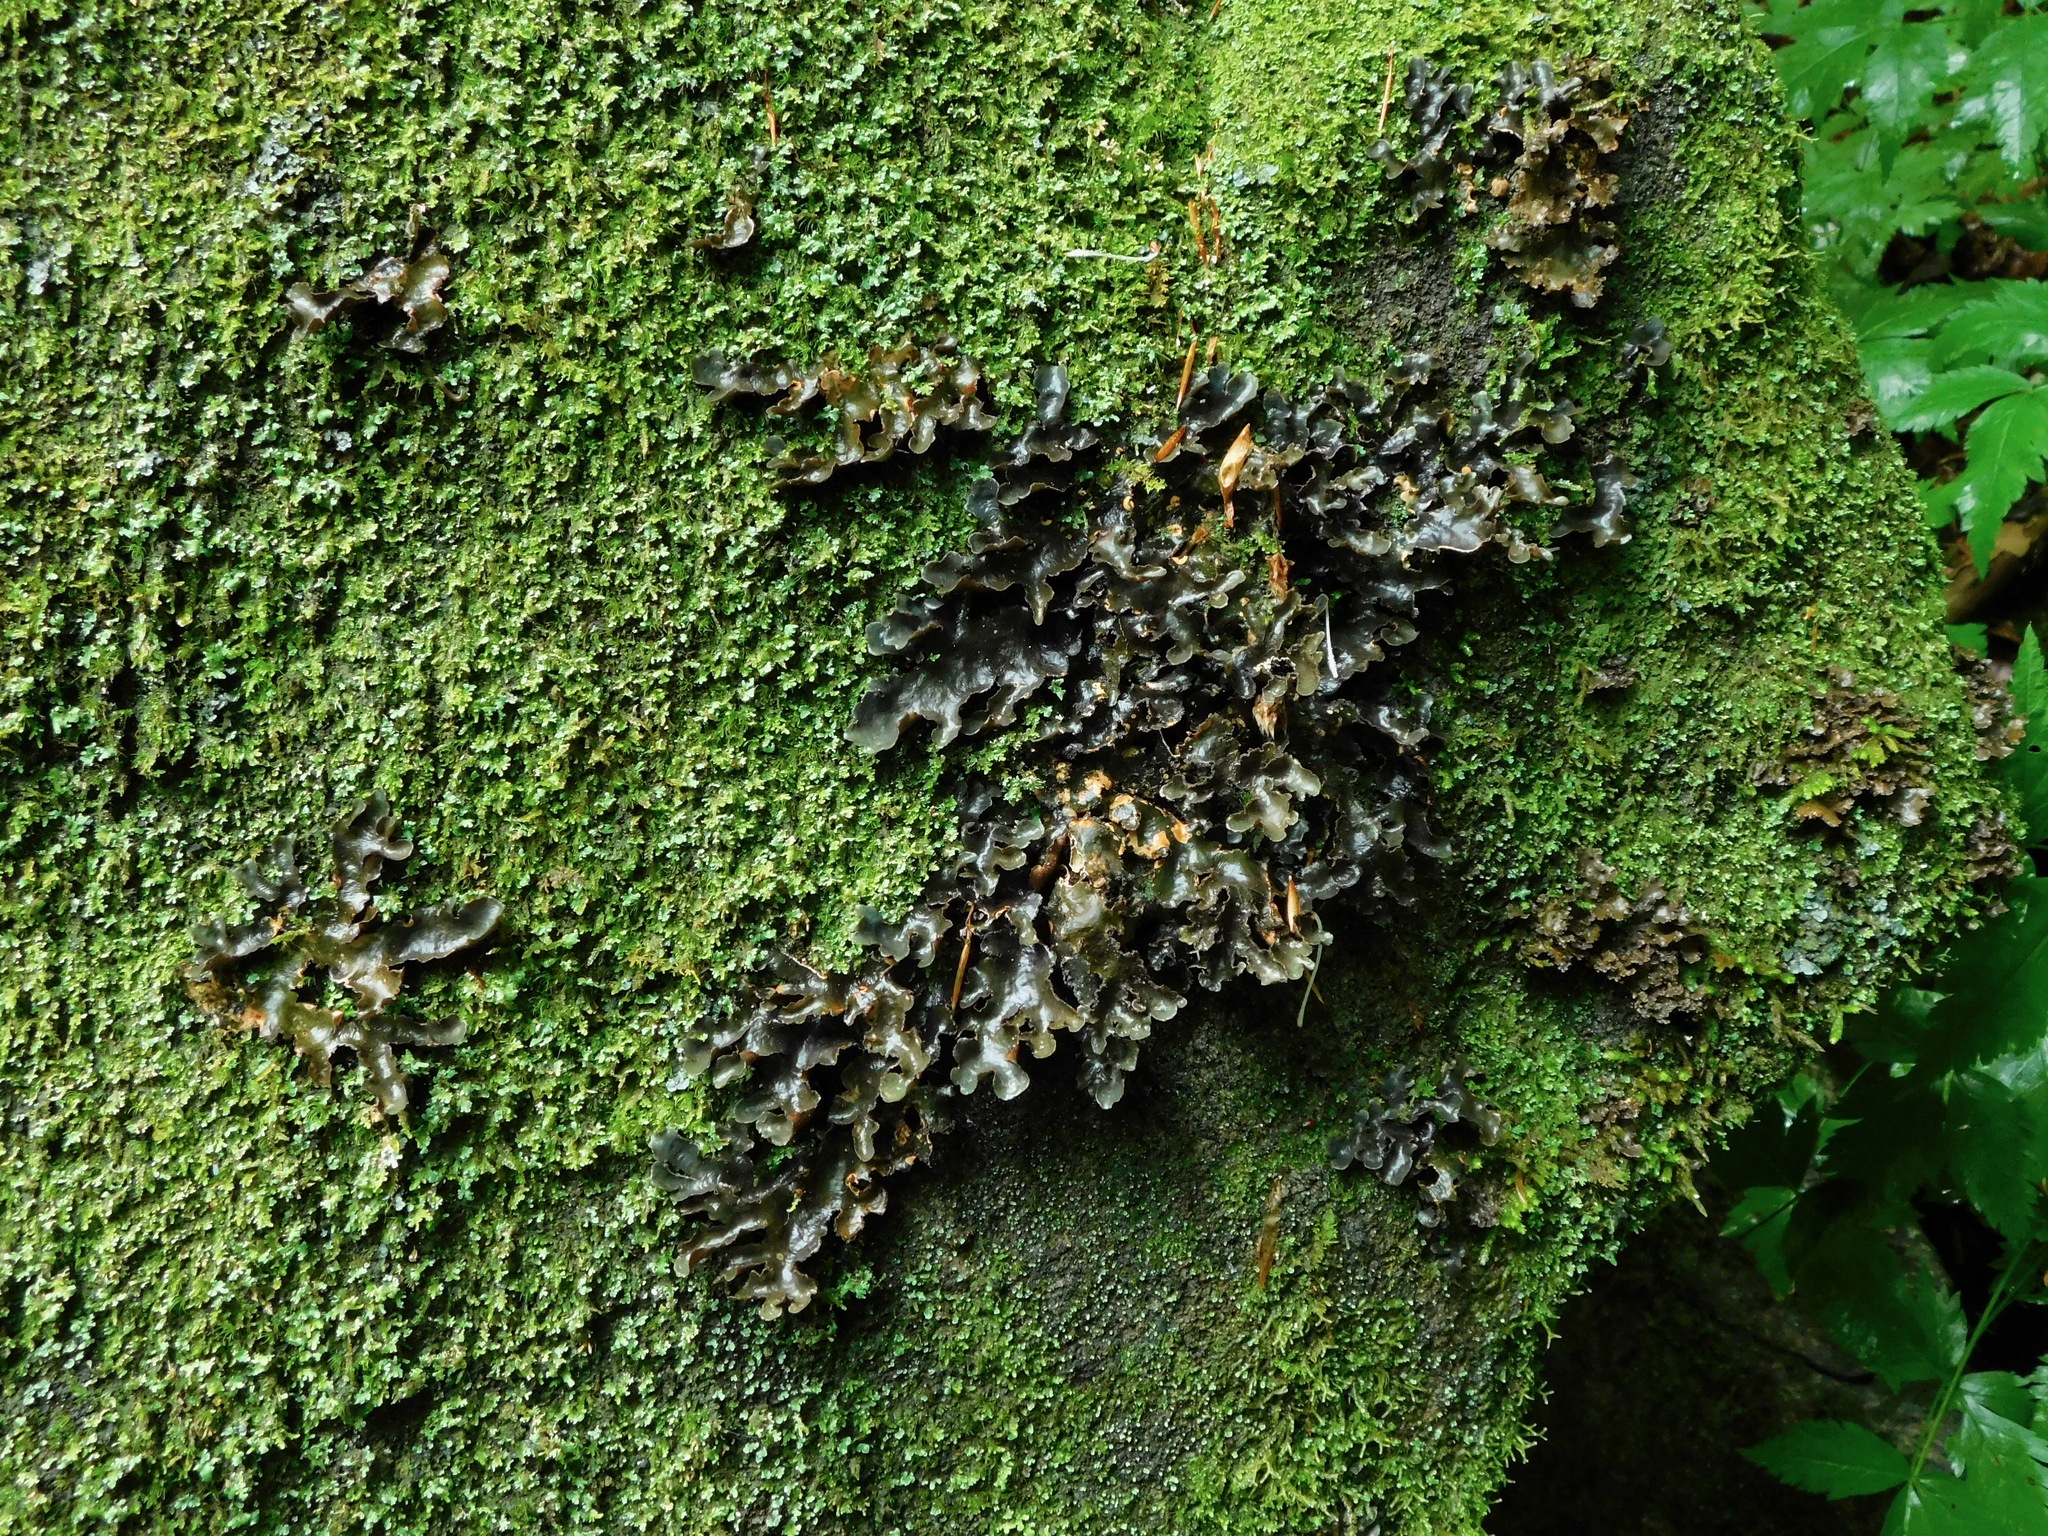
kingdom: Fungi
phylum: Ascomycota
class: Lecanoromycetes
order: Peltigerales
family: Lobariaceae
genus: Sticta
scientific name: Sticta beauvoisii
